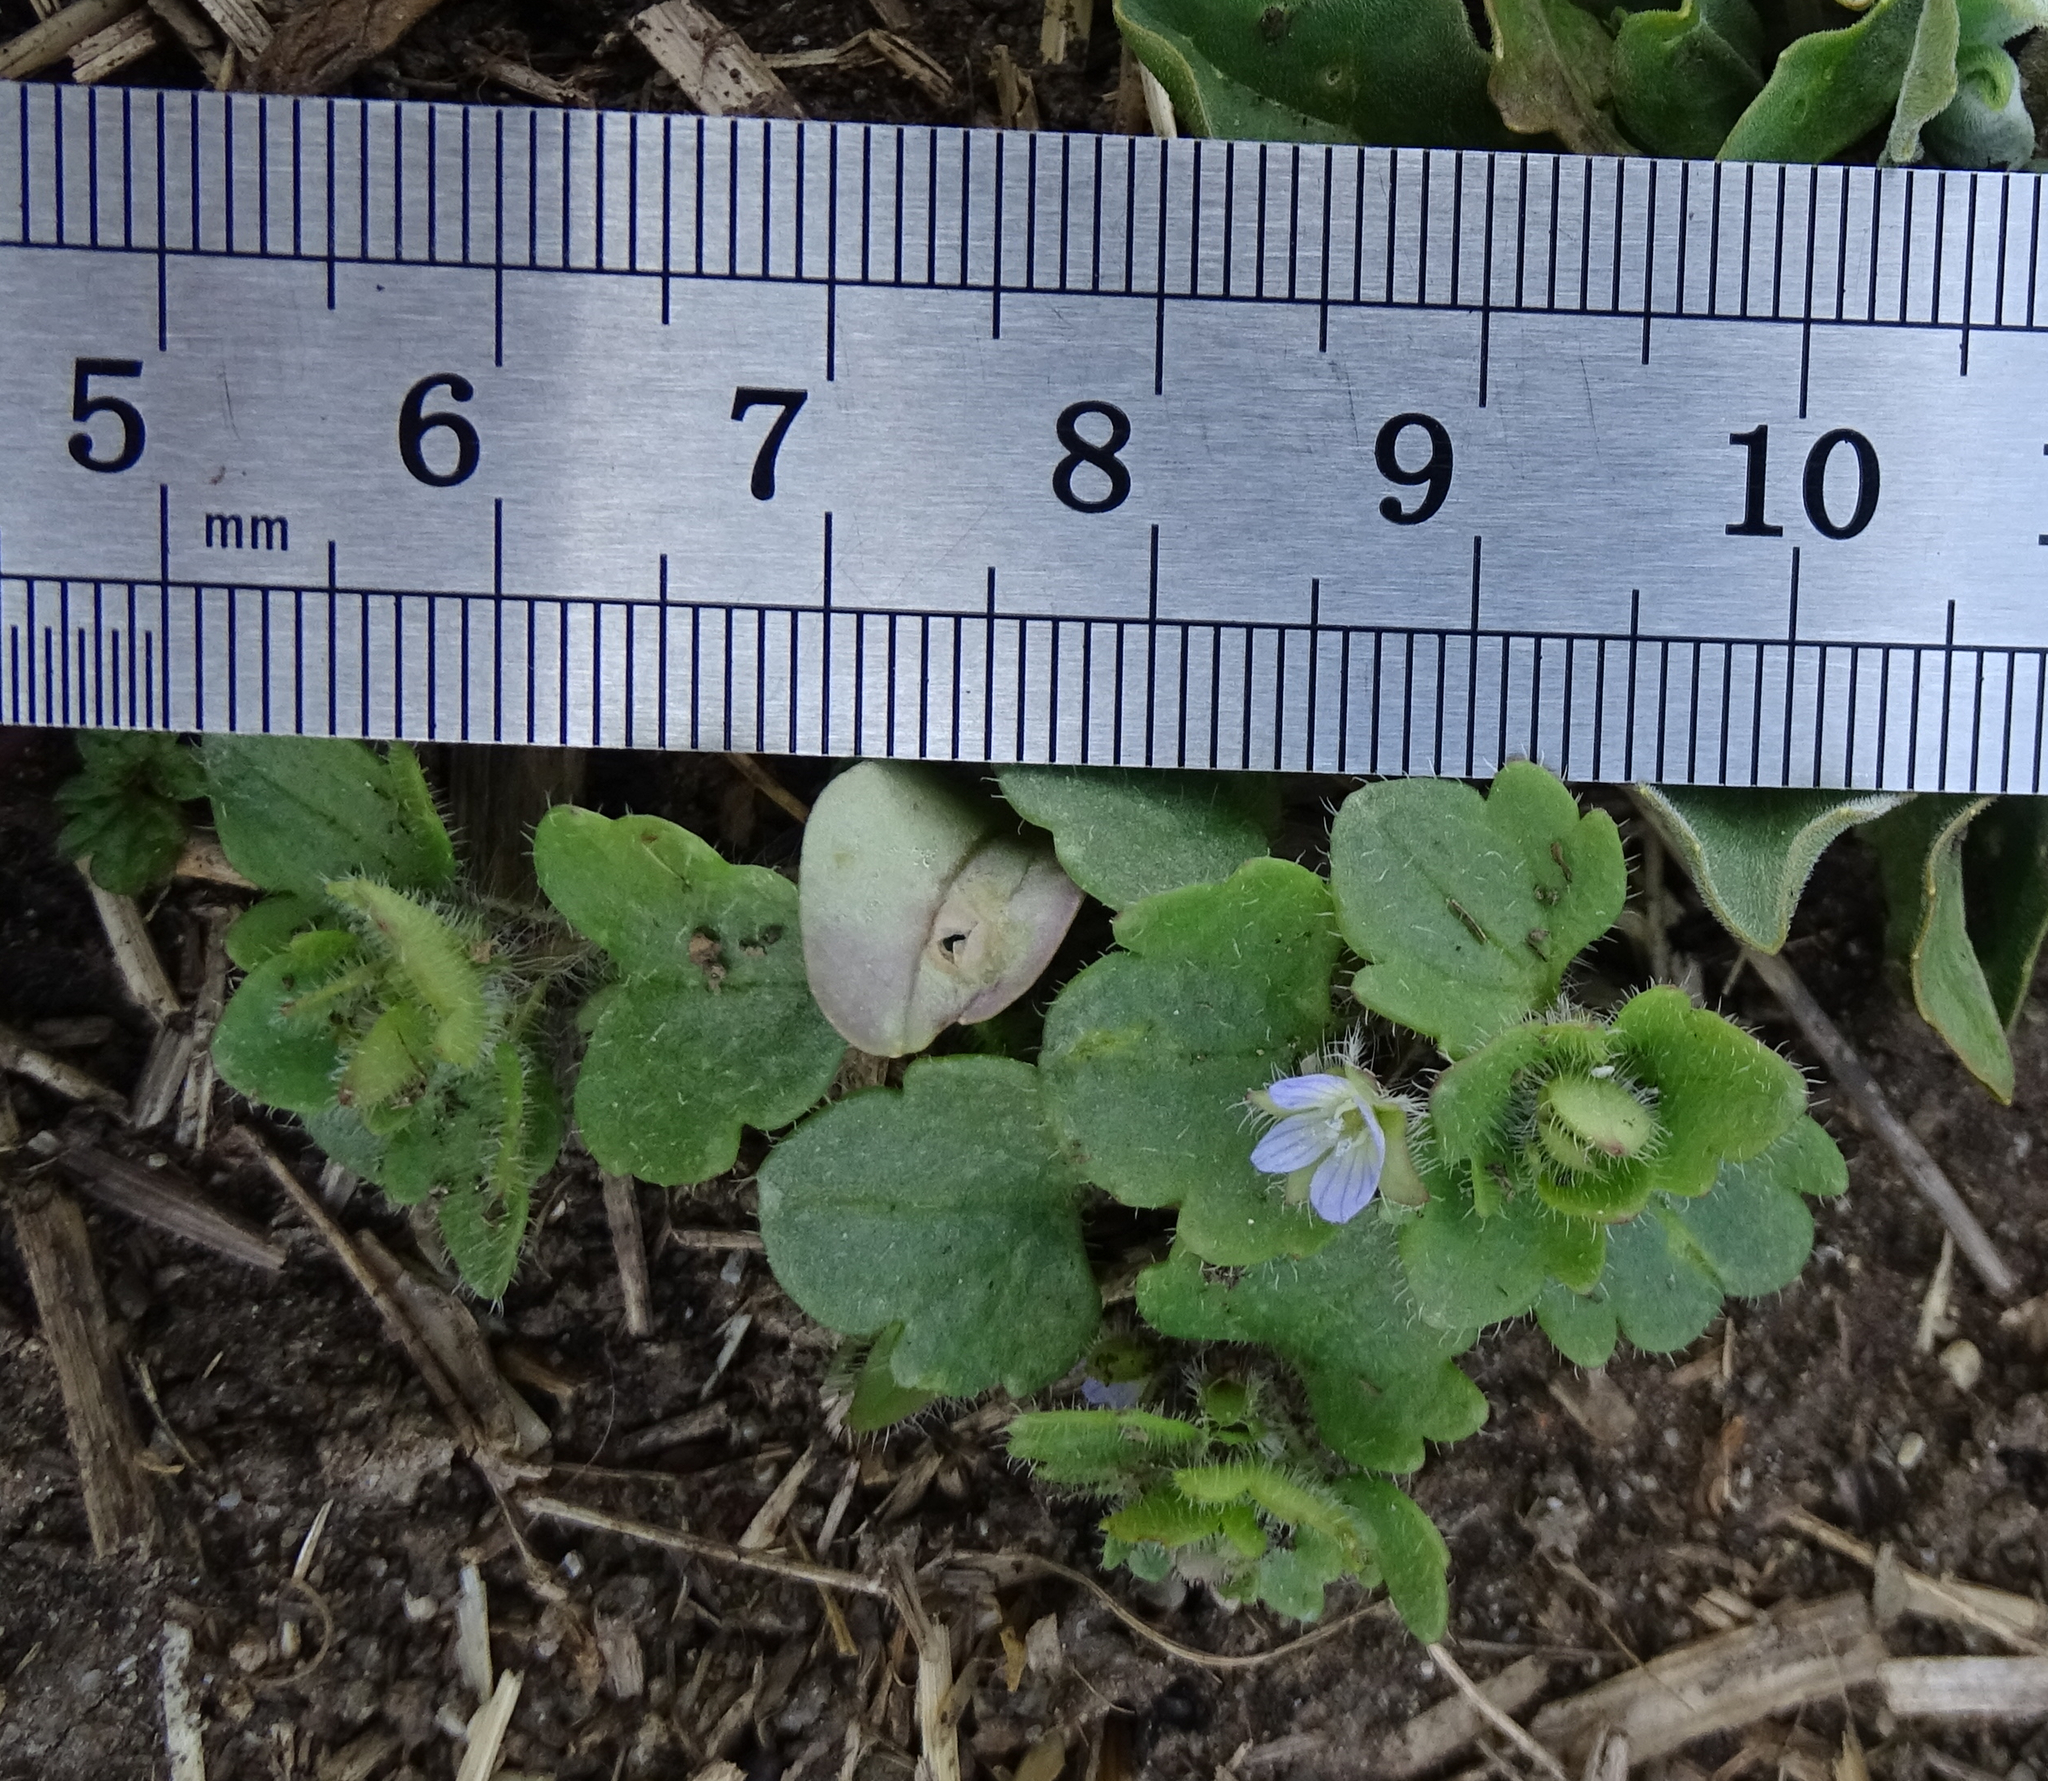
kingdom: Plantae
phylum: Tracheophyta
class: Magnoliopsida
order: Lamiales
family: Plantaginaceae
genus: Veronica
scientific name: Veronica hederifolia
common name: Ivy-leaved speedwell
